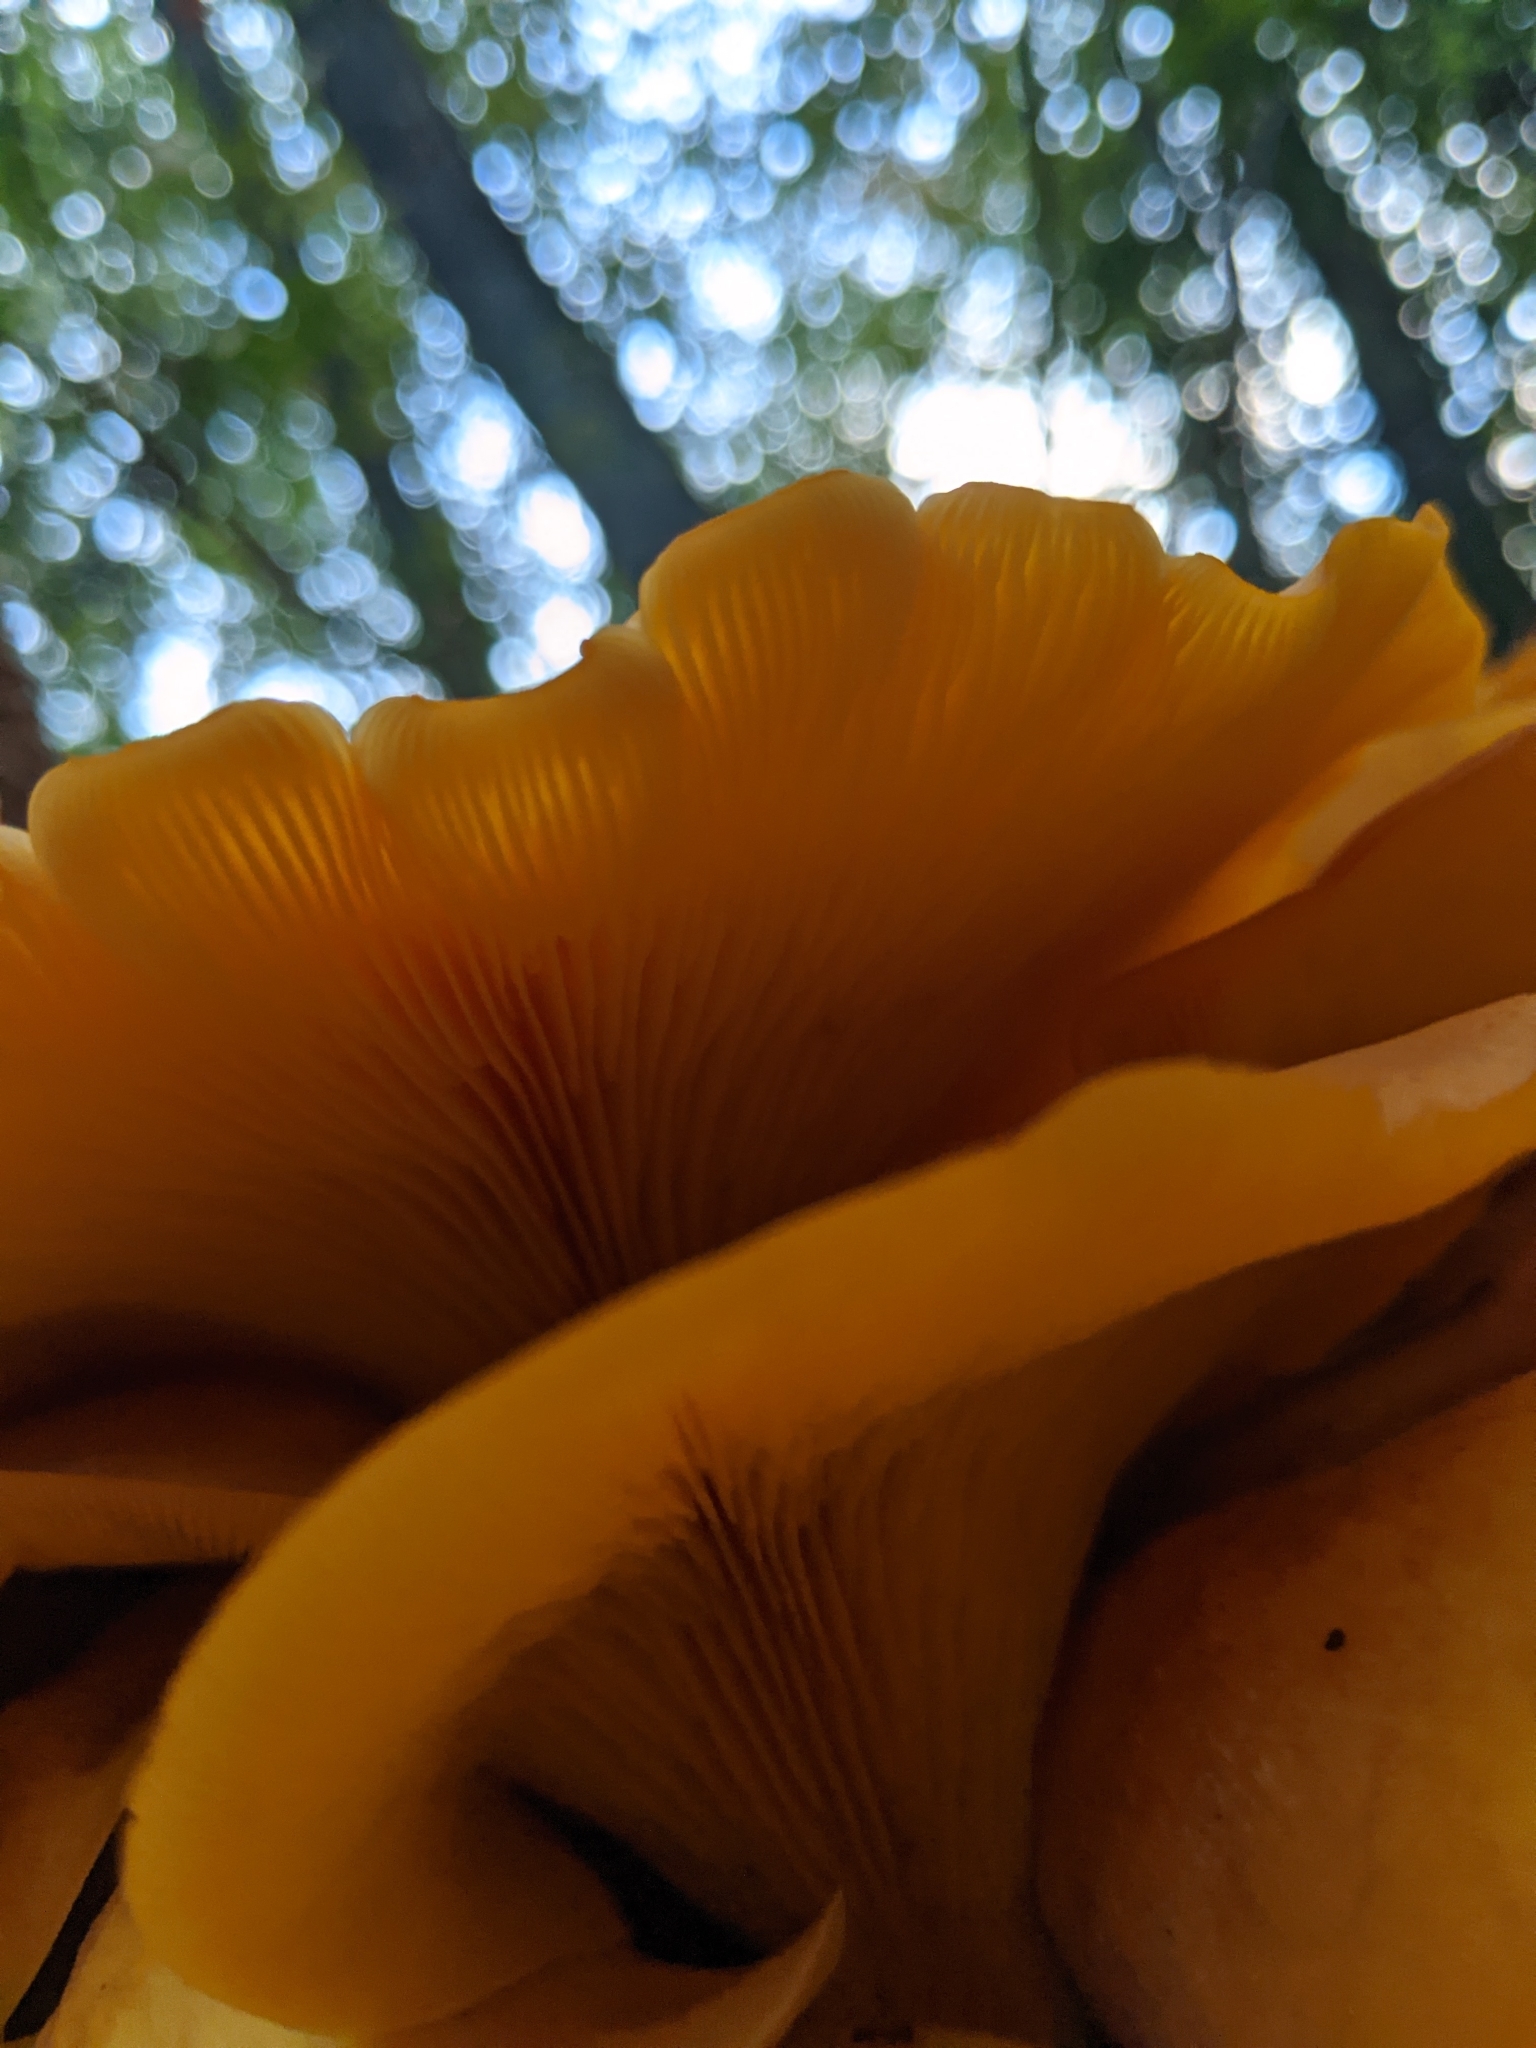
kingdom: Fungi
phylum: Basidiomycota
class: Agaricomycetes
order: Agaricales
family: Omphalotaceae
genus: Omphalotus
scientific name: Omphalotus illudens
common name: Jack o lantern
